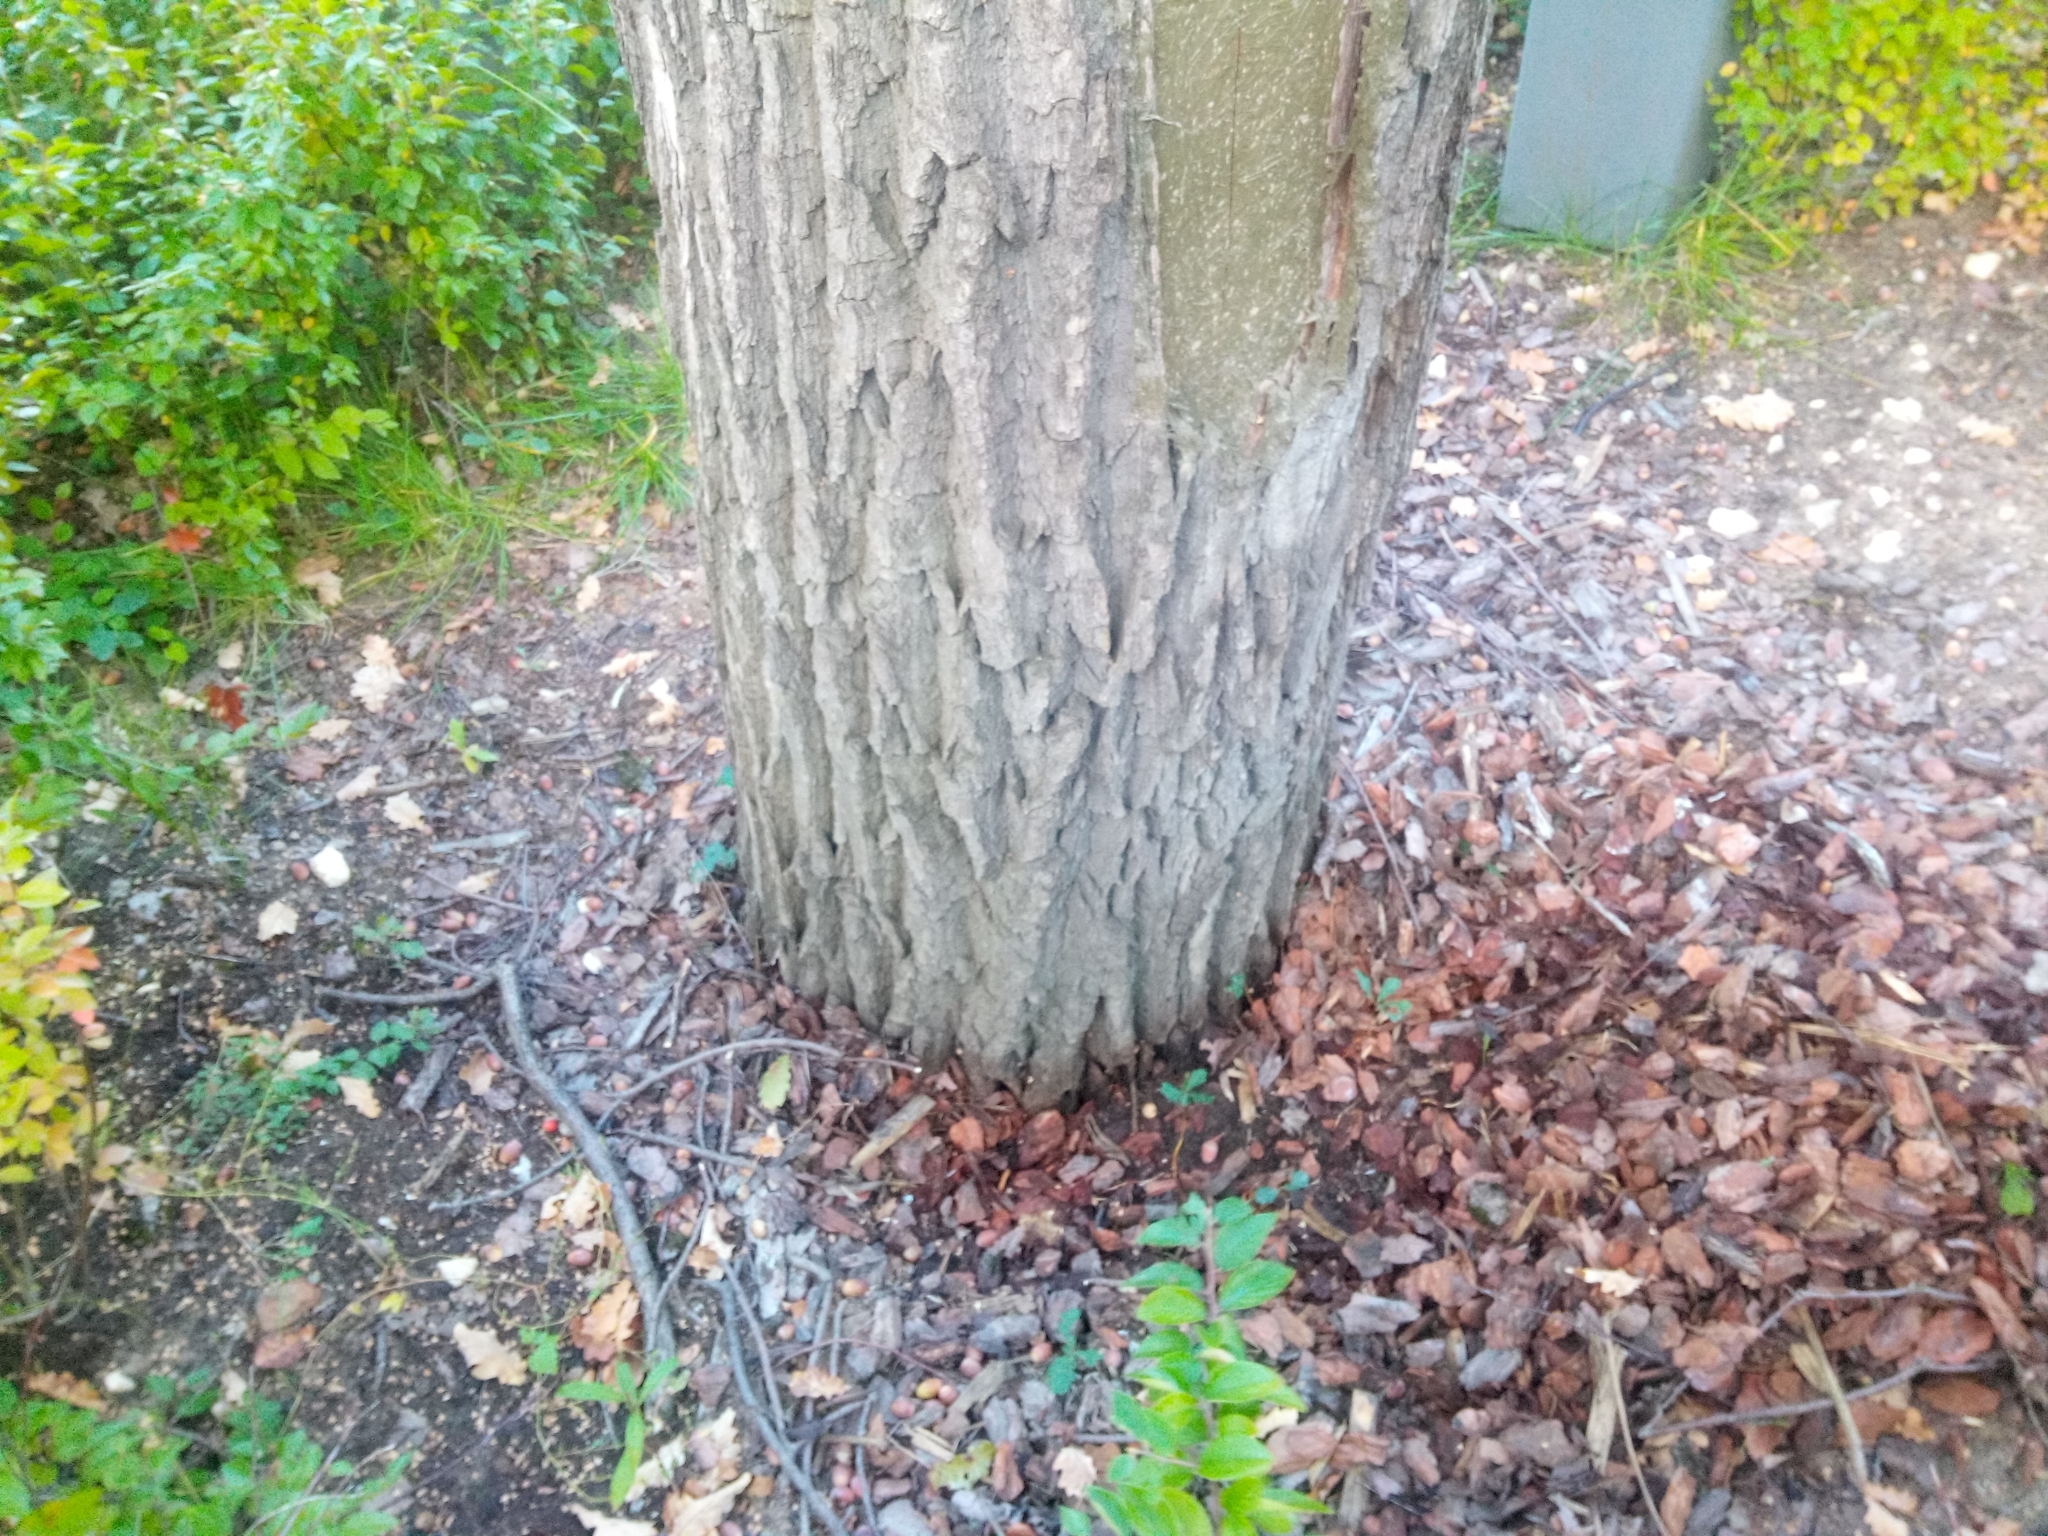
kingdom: Plantae
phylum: Tracheophyta
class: Magnoliopsida
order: Fagales
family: Fagaceae
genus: Quercus
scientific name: Quercus robur
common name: Pedunculate oak
